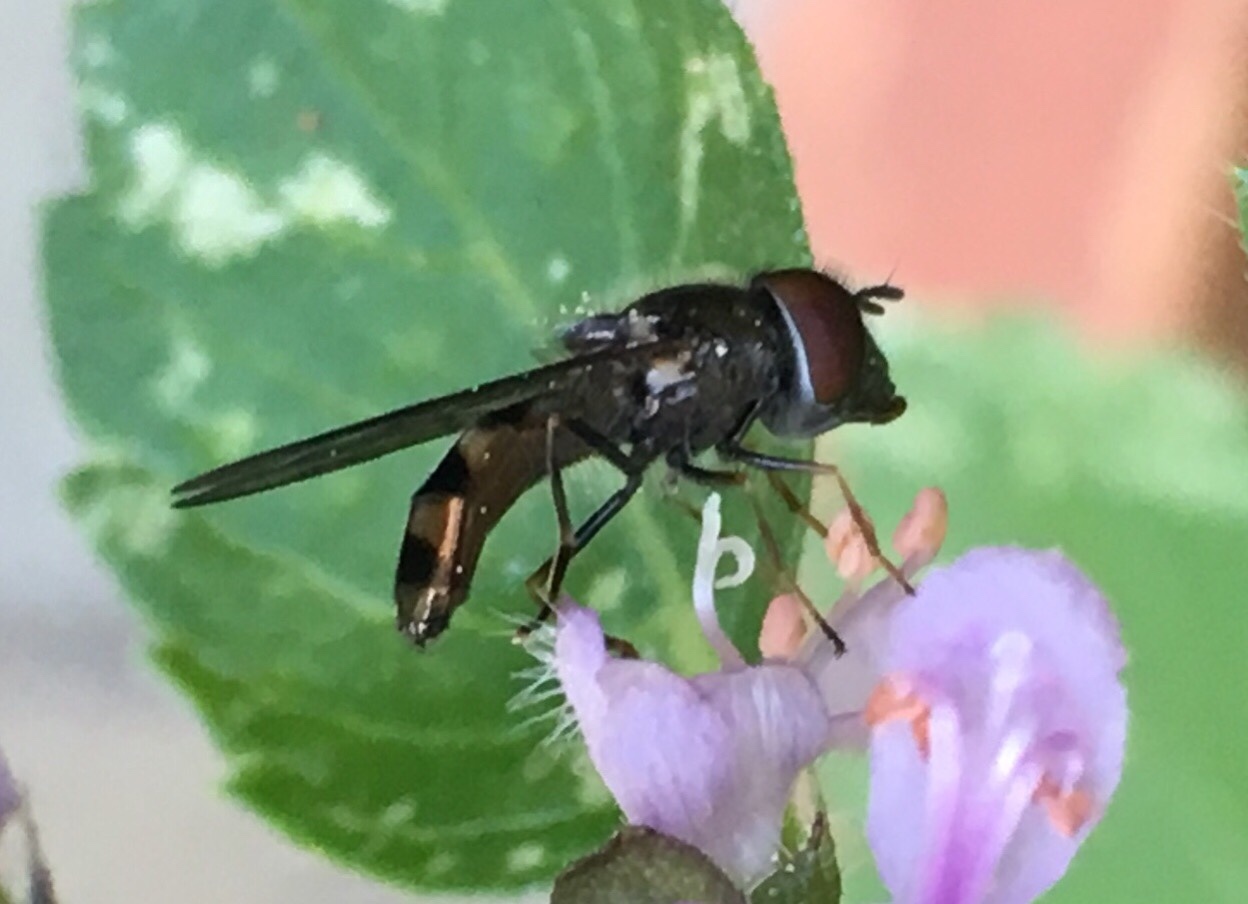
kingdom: Animalia
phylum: Arthropoda
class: Insecta
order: Diptera
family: Syrphidae
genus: Platycheirus
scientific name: Platycheirus obscurus
